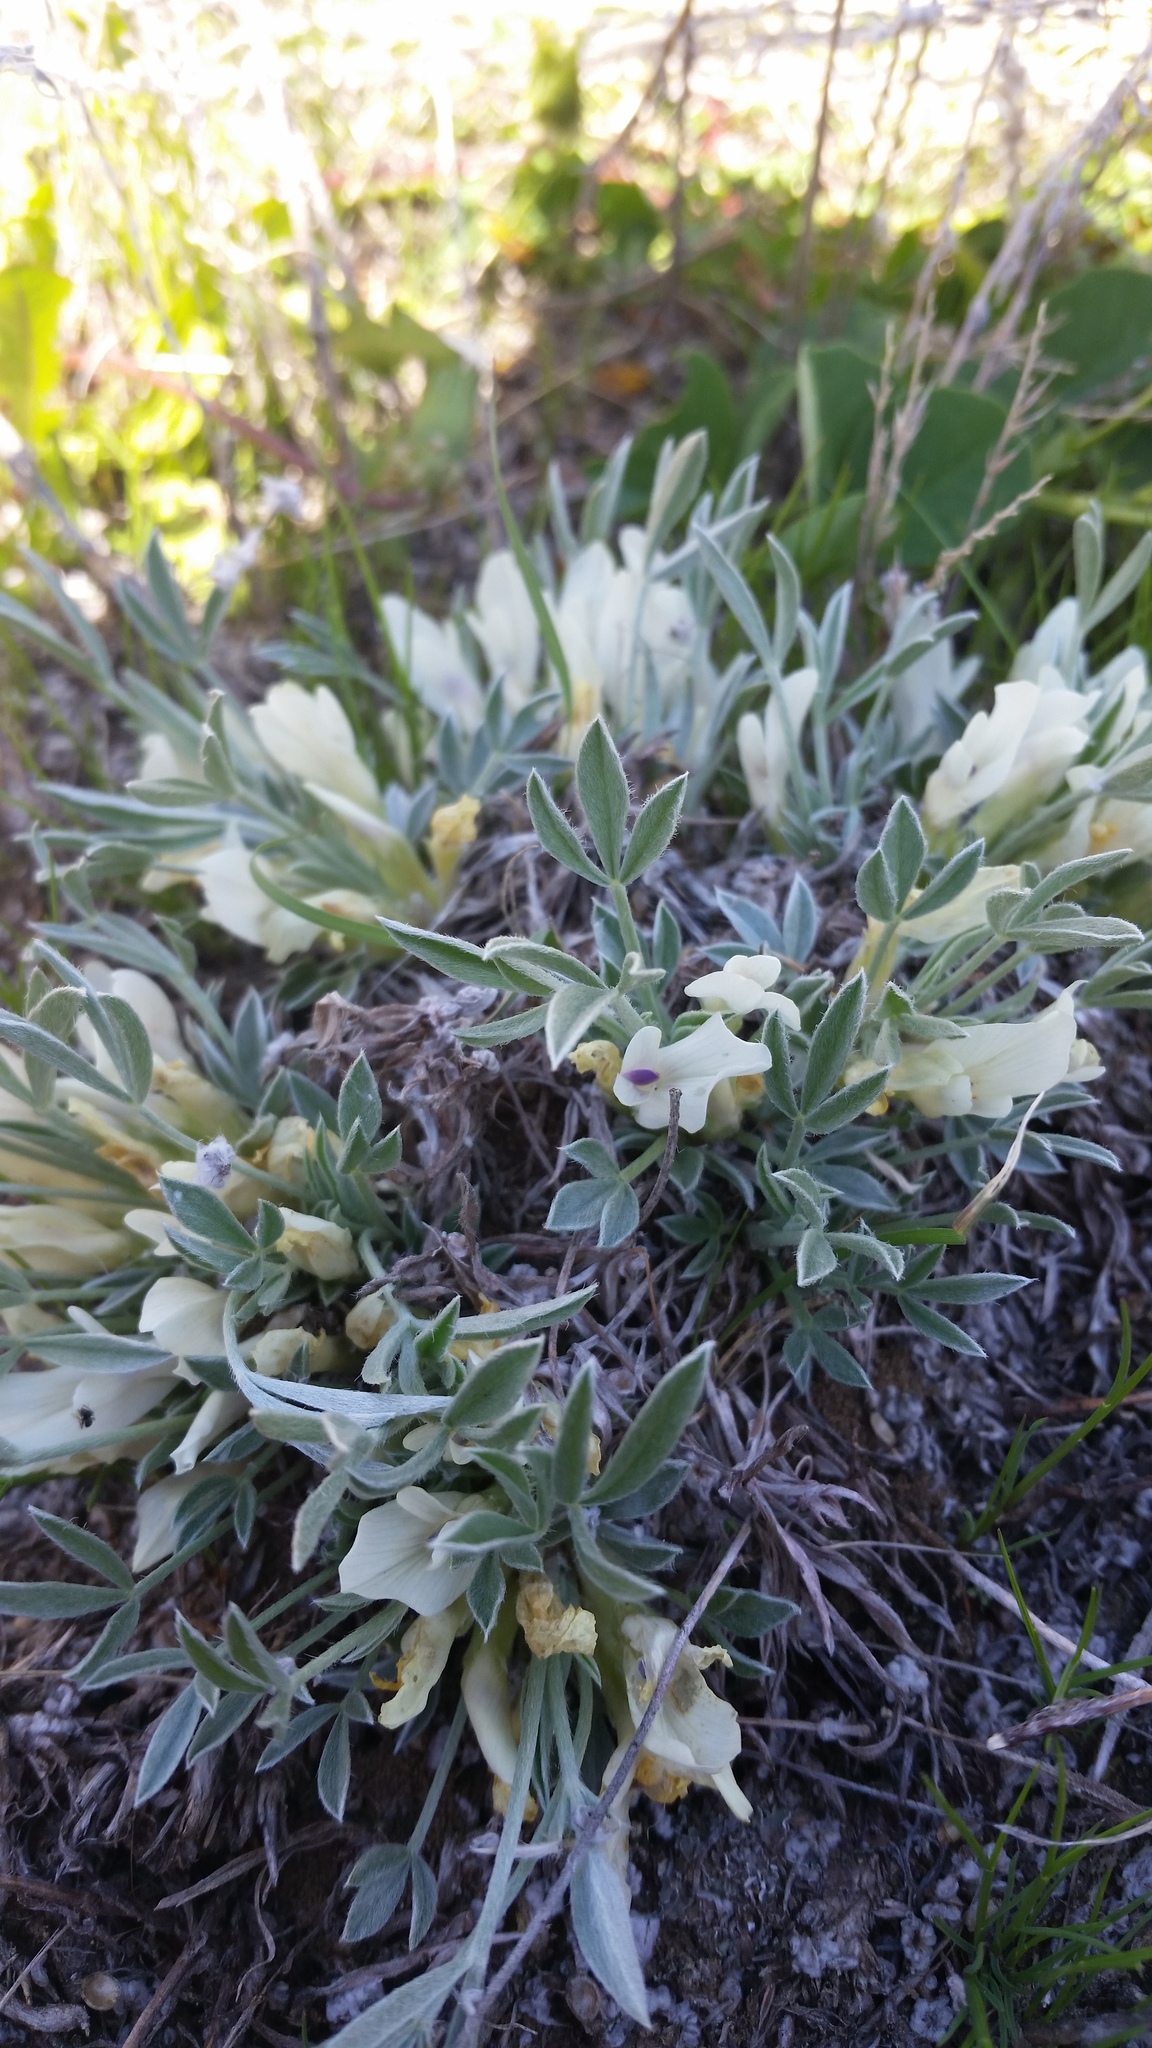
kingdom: Plantae
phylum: Tracheophyta
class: Magnoliopsida
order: Fabales
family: Fabaceae
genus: Astragalus
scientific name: Astragalus gilviflorus
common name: Cushion milk-vetch
